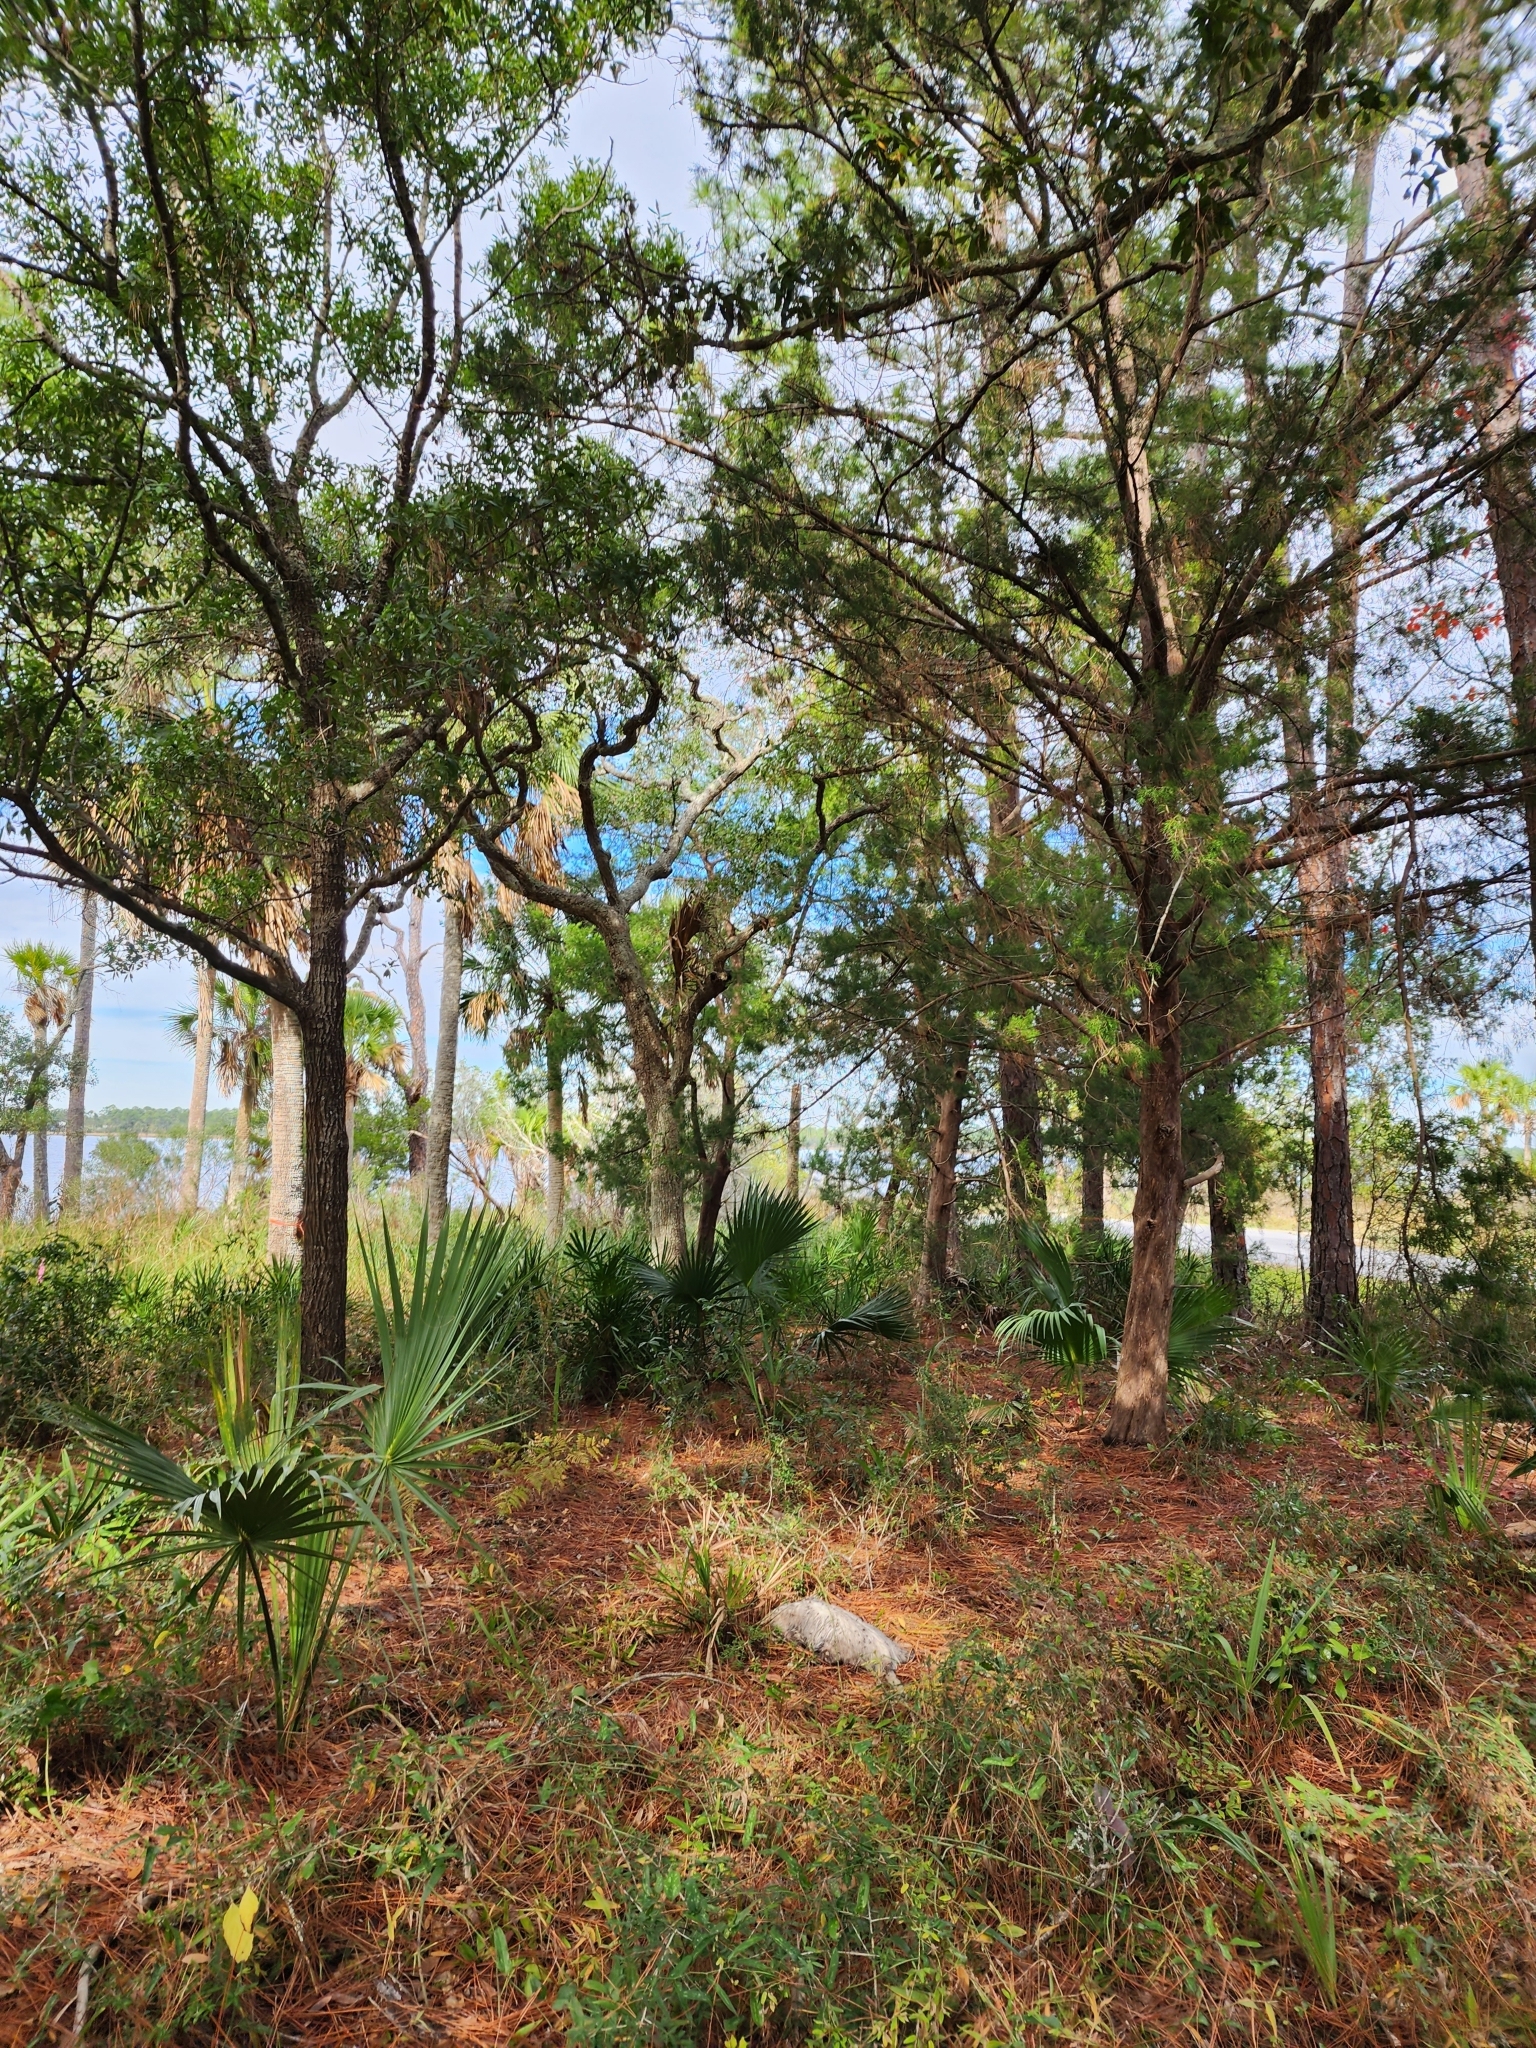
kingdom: Animalia
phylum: Chordata
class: Mammalia
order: Didelphimorphia
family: Didelphidae
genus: Didelphis
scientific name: Didelphis virginiana
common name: Virginia opossum
